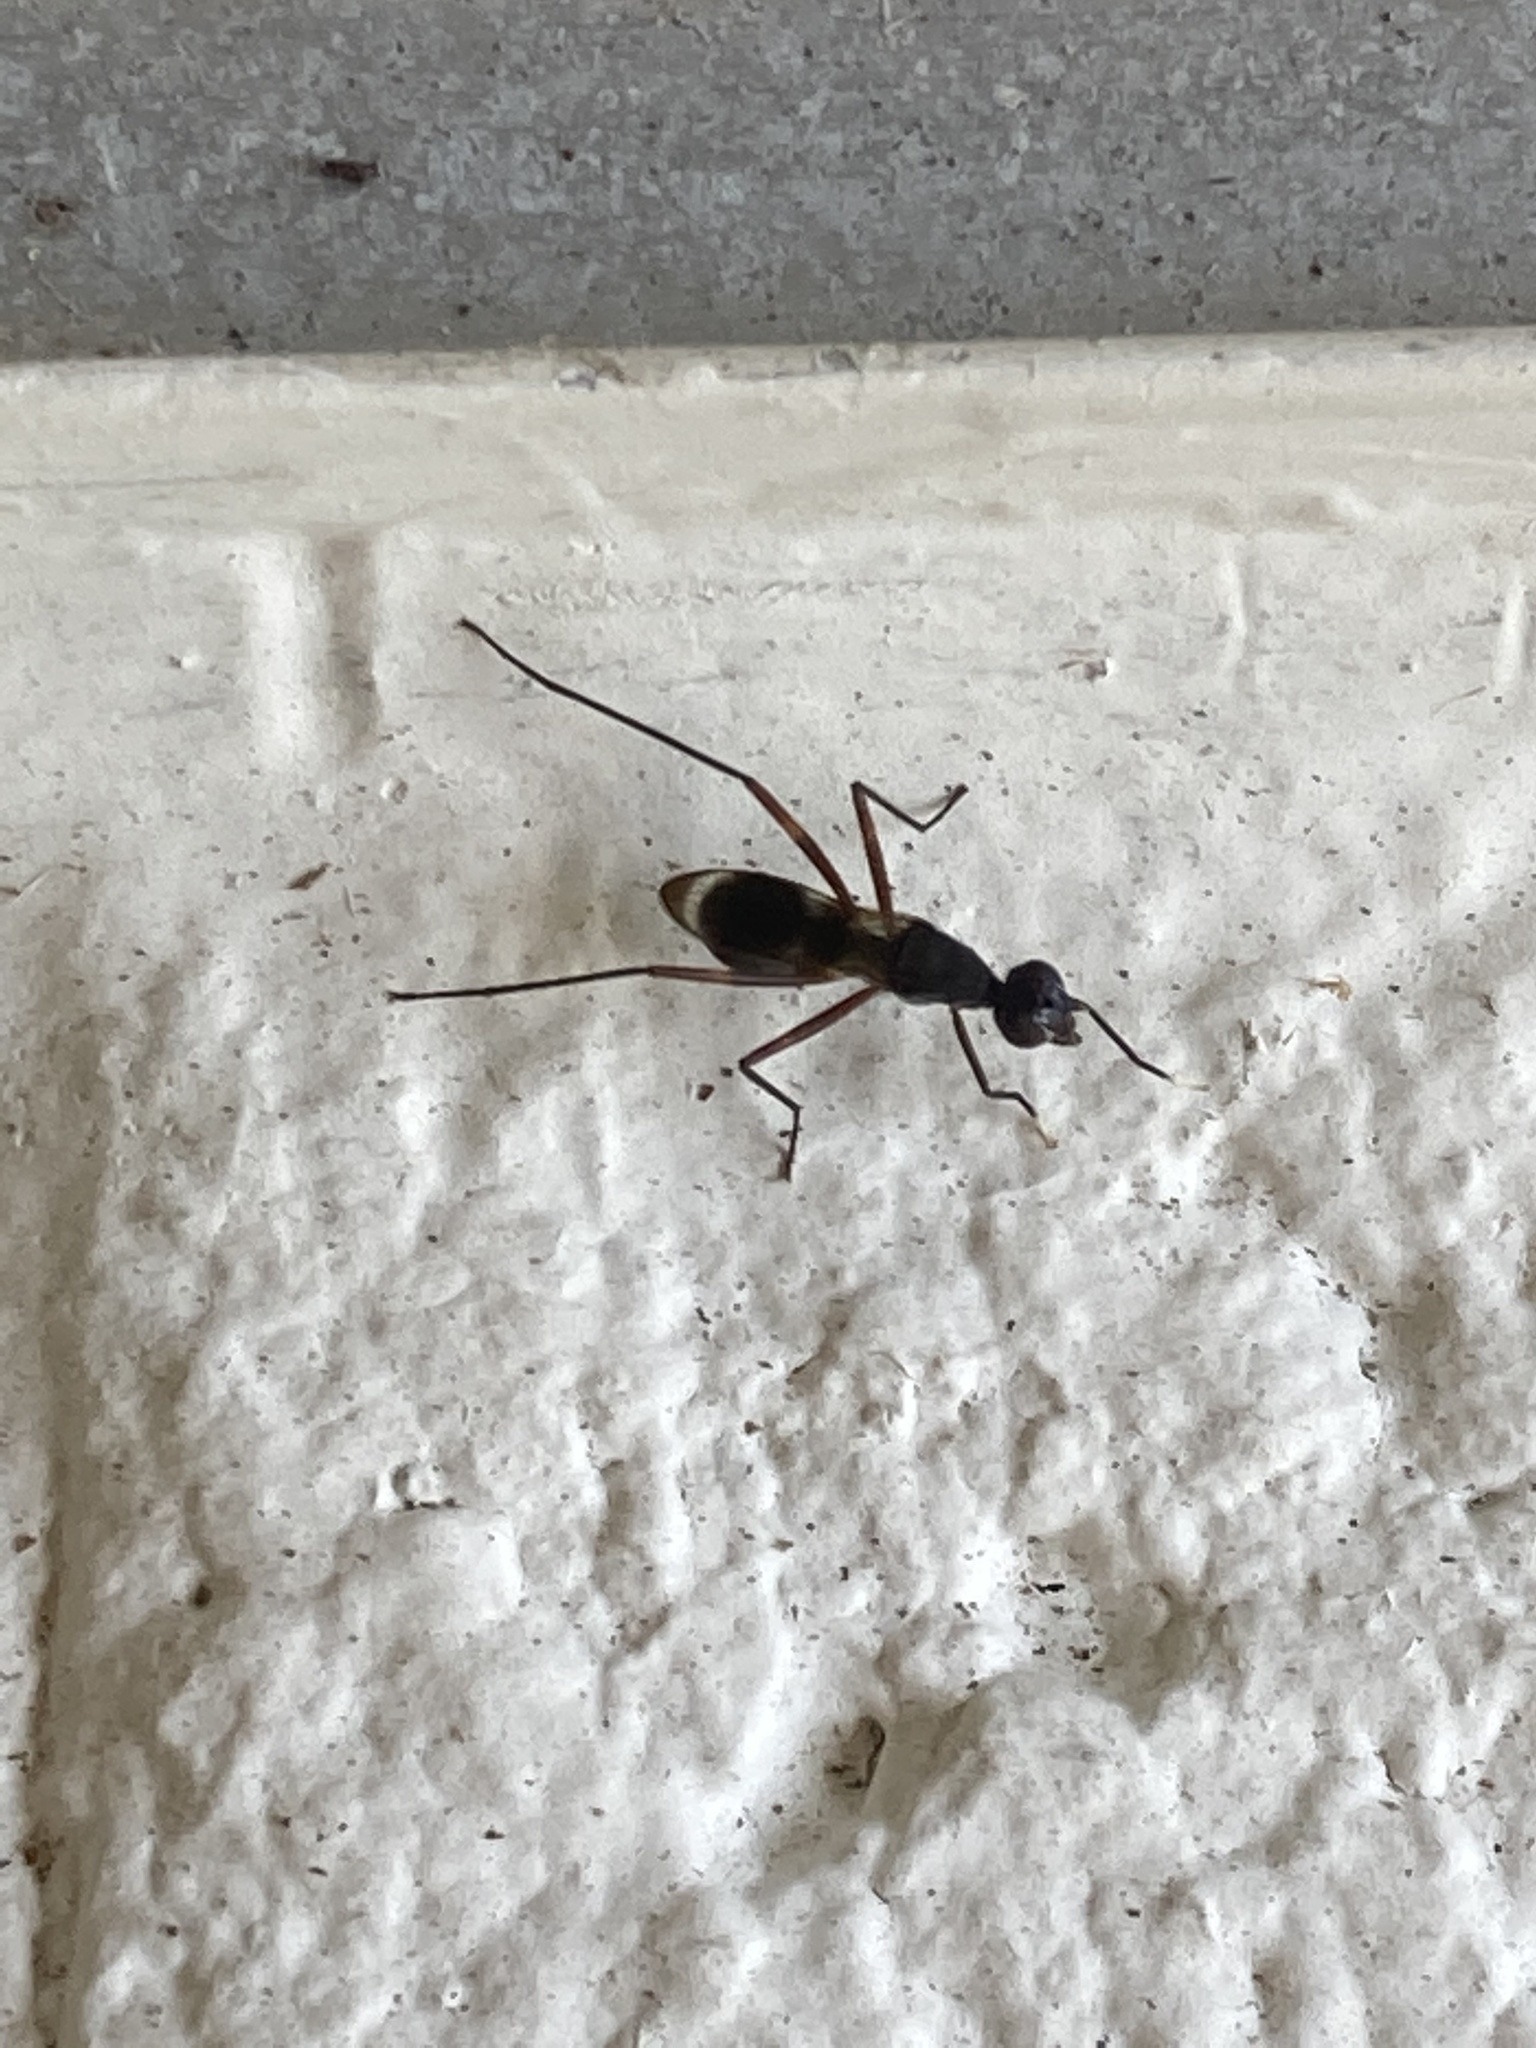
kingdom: Animalia
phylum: Arthropoda
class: Insecta
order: Diptera
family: Micropezidae
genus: Taeniaptera
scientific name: Taeniaptera trivittata
